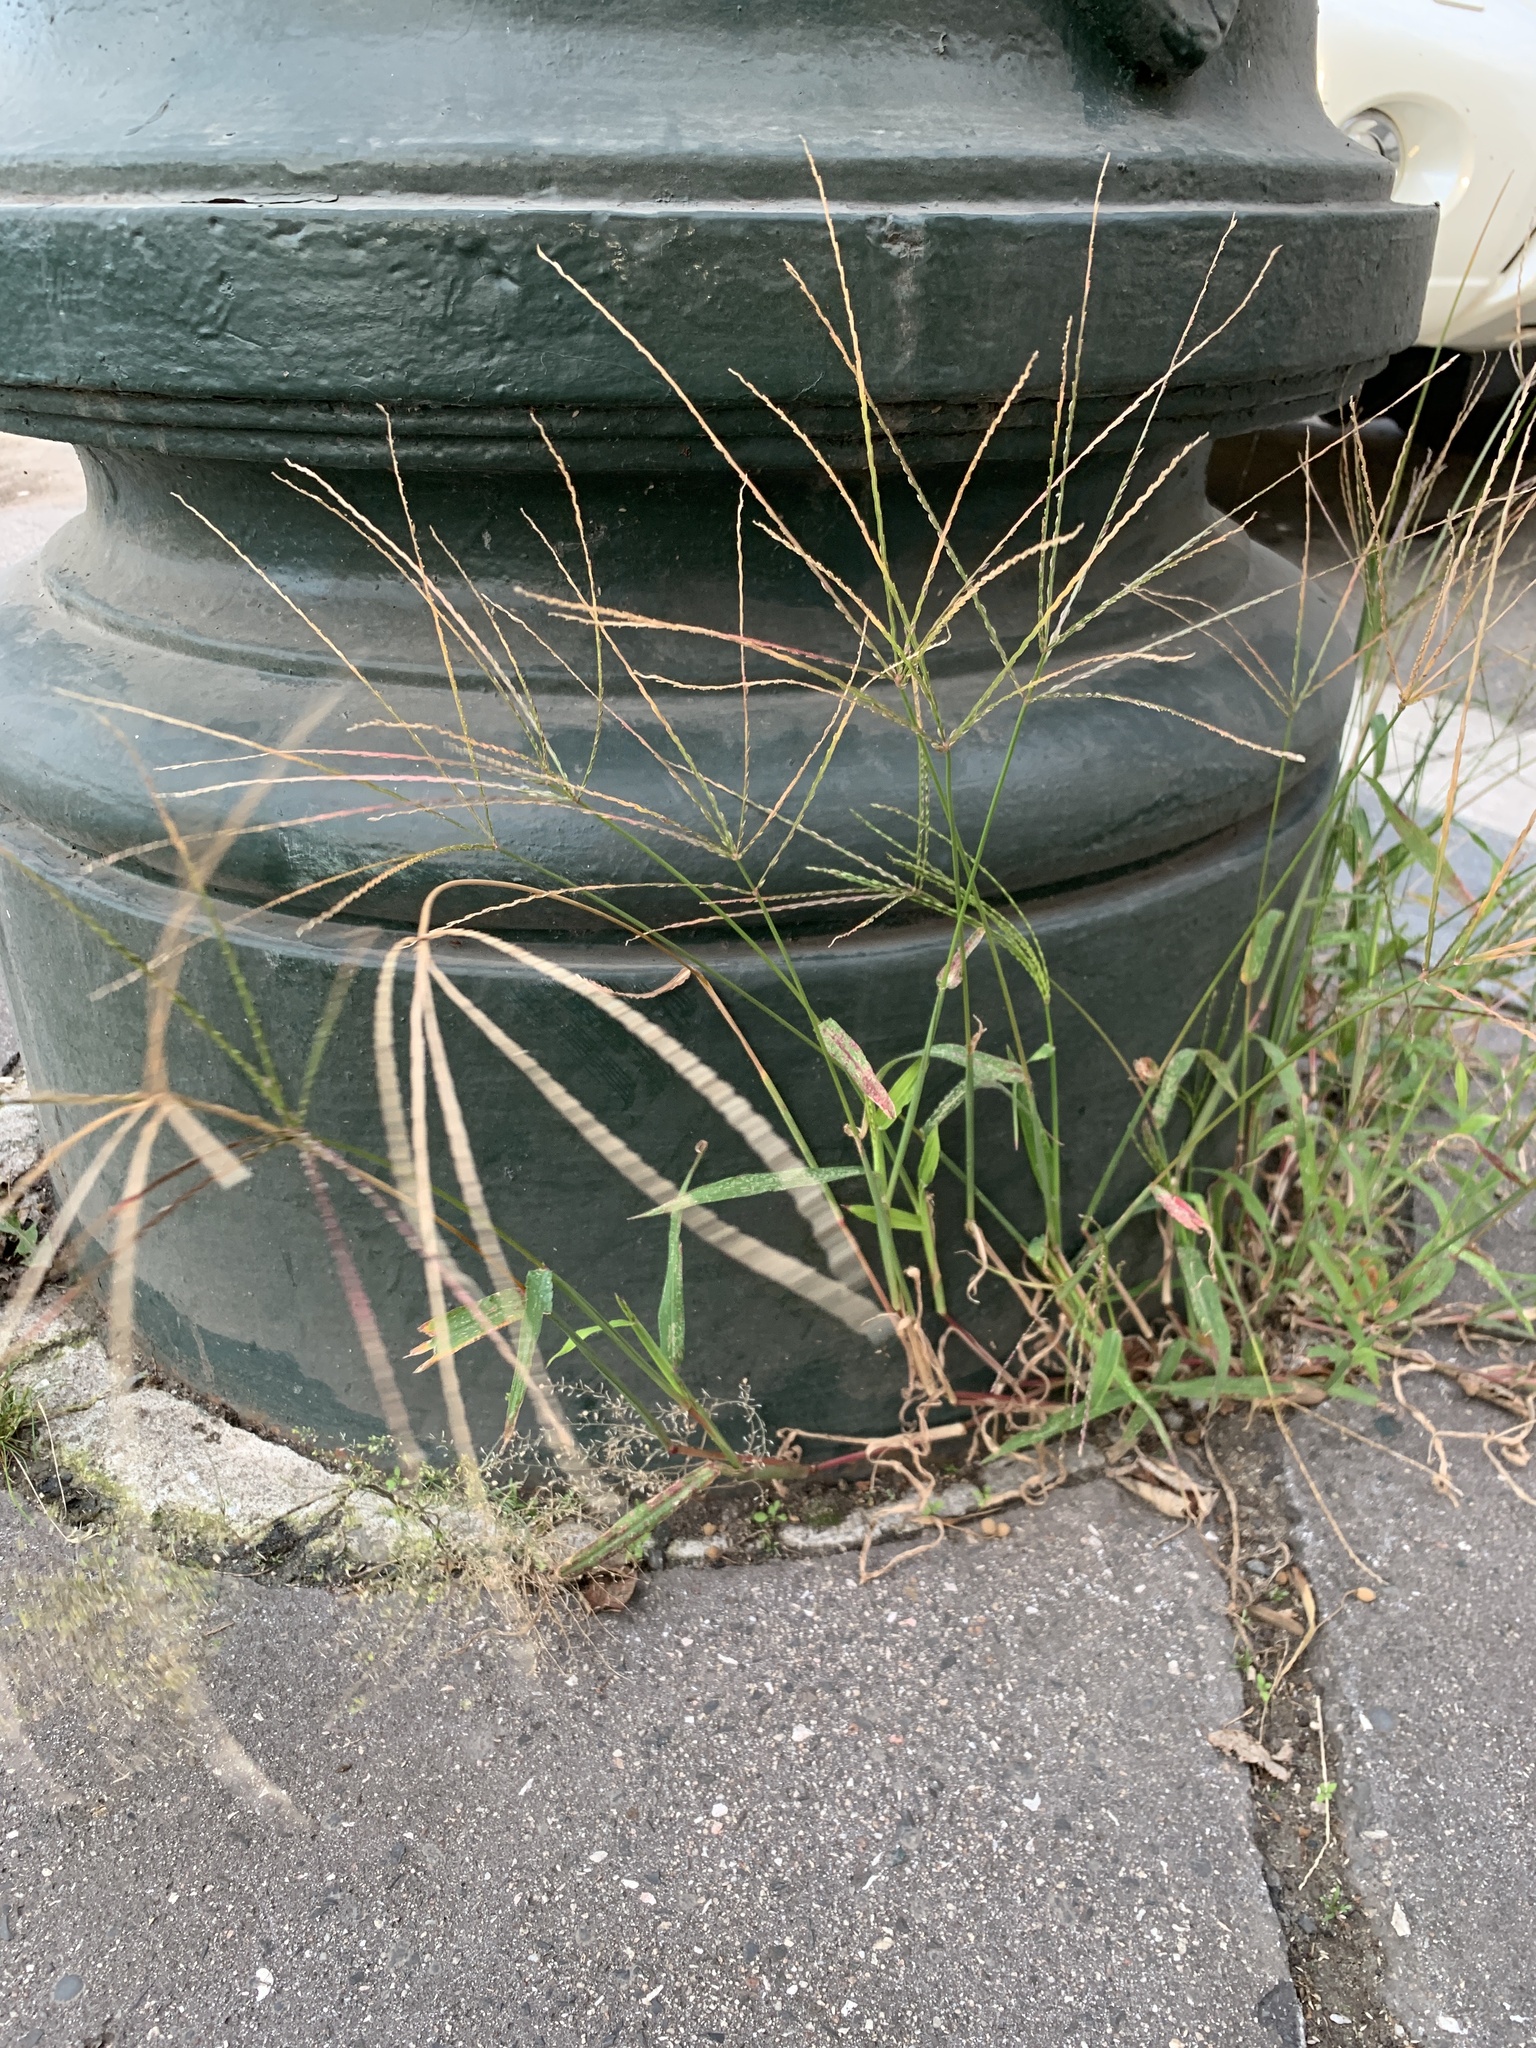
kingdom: Plantae
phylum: Tracheophyta
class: Liliopsida
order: Poales
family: Poaceae
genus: Digitaria
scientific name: Digitaria sanguinalis
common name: Hairy crabgrass
